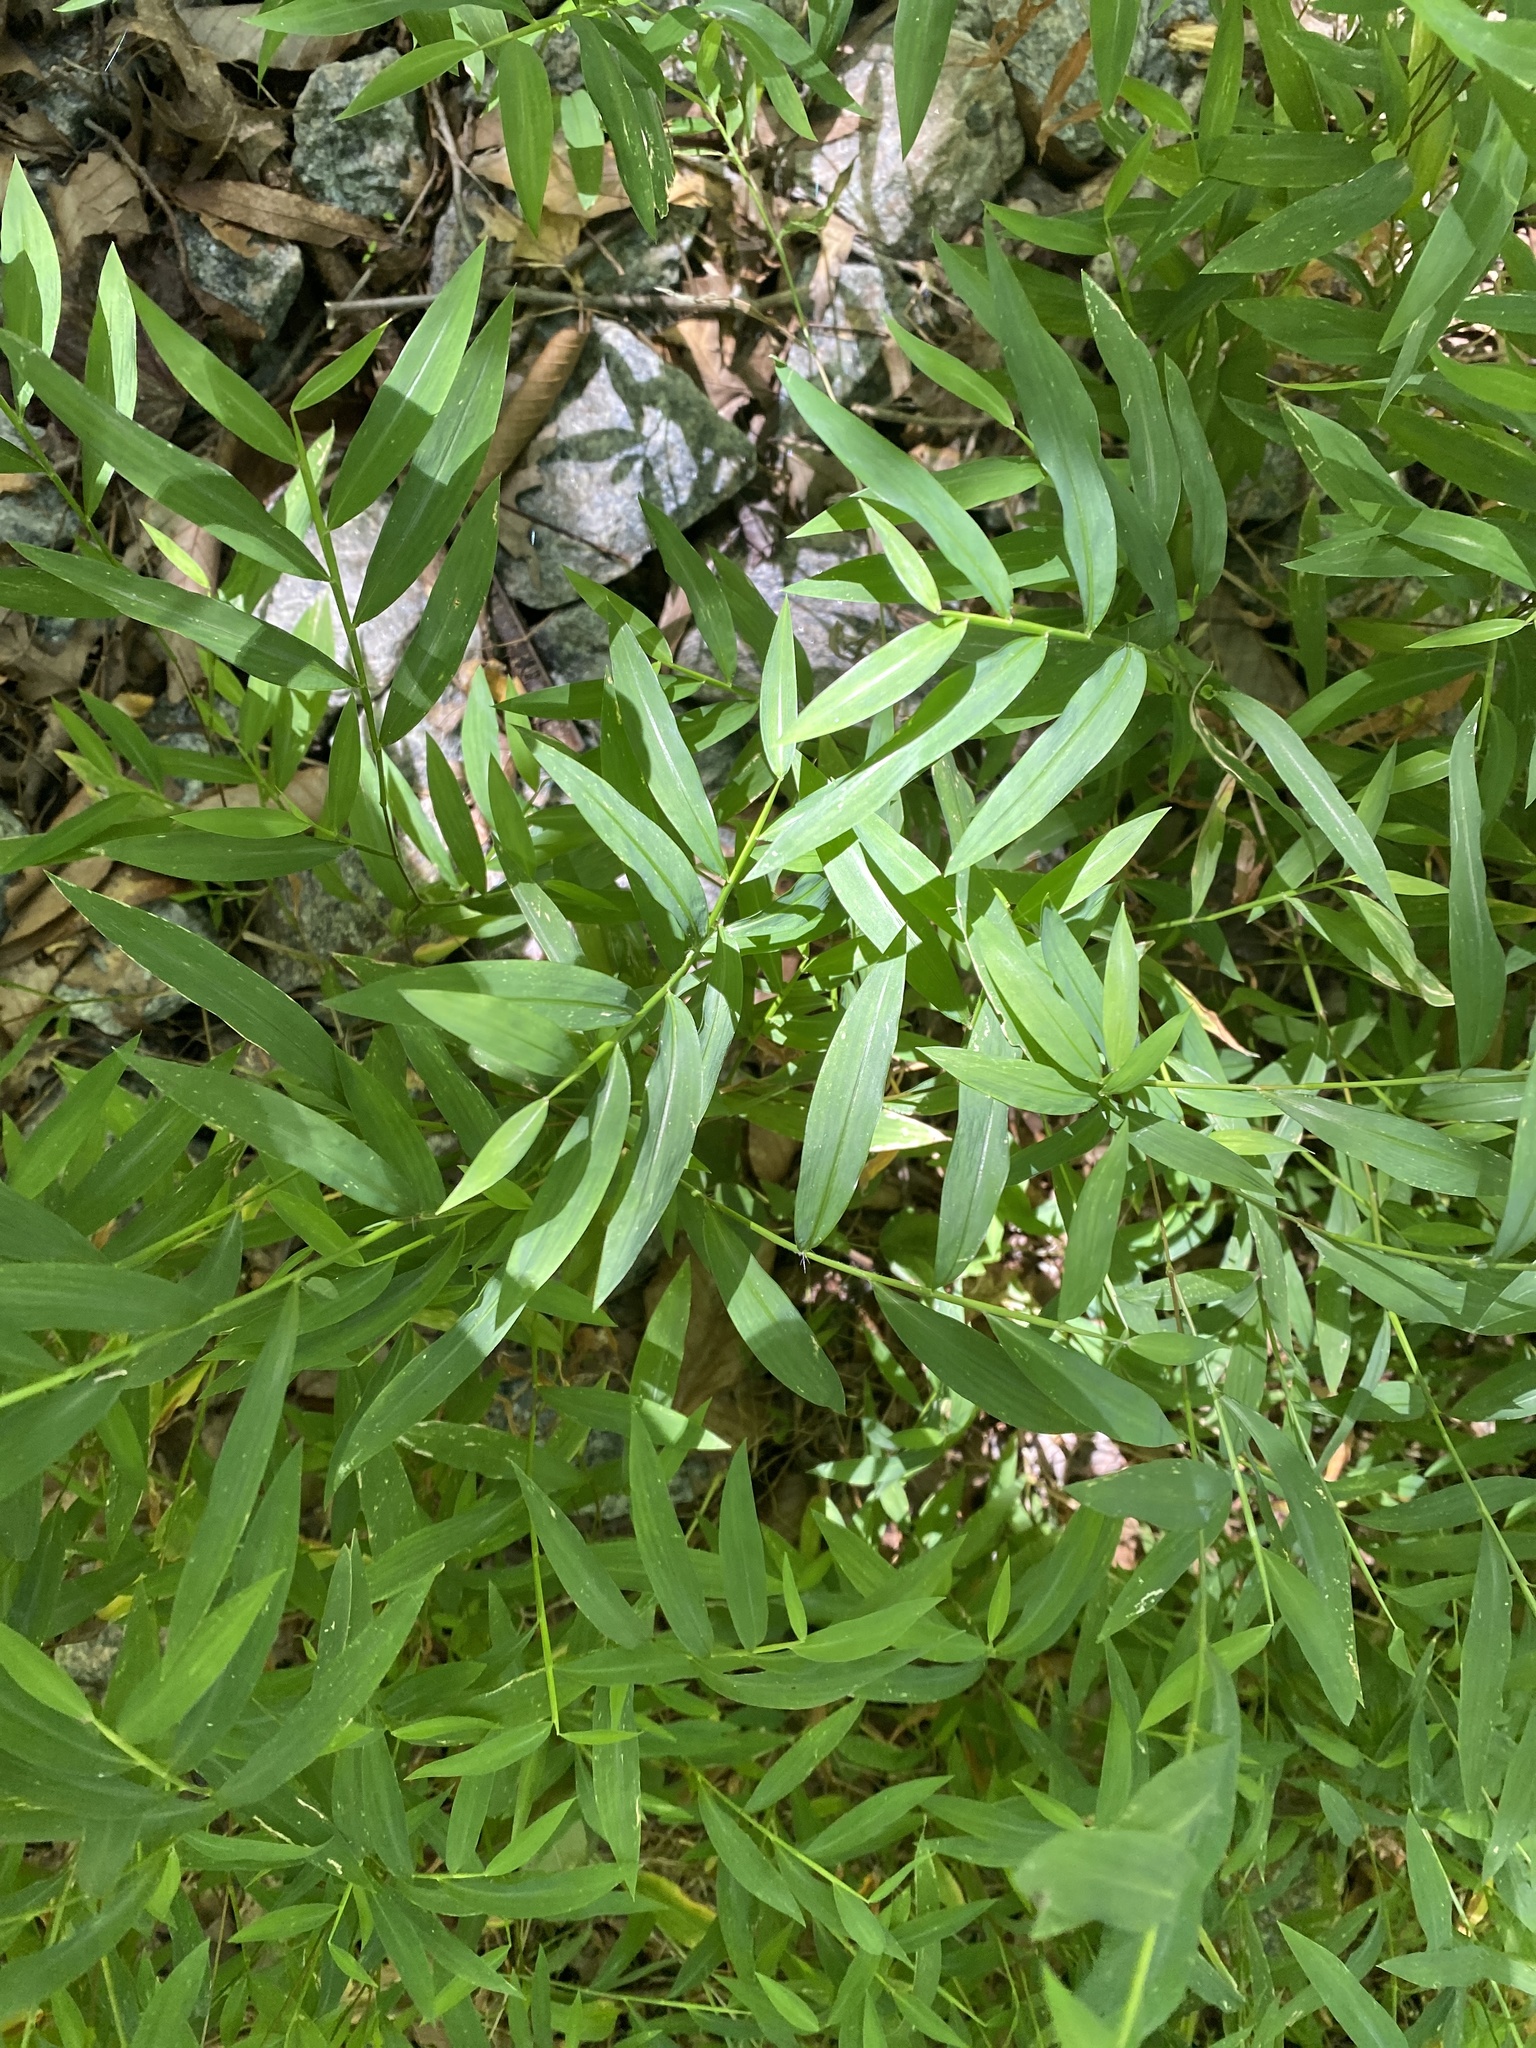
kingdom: Plantae
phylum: Tracheophyta
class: Liliopsida
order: Poales
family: Poaceae
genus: Microstegium
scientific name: Microstegium vimineum
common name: Japanese stiltgrass
